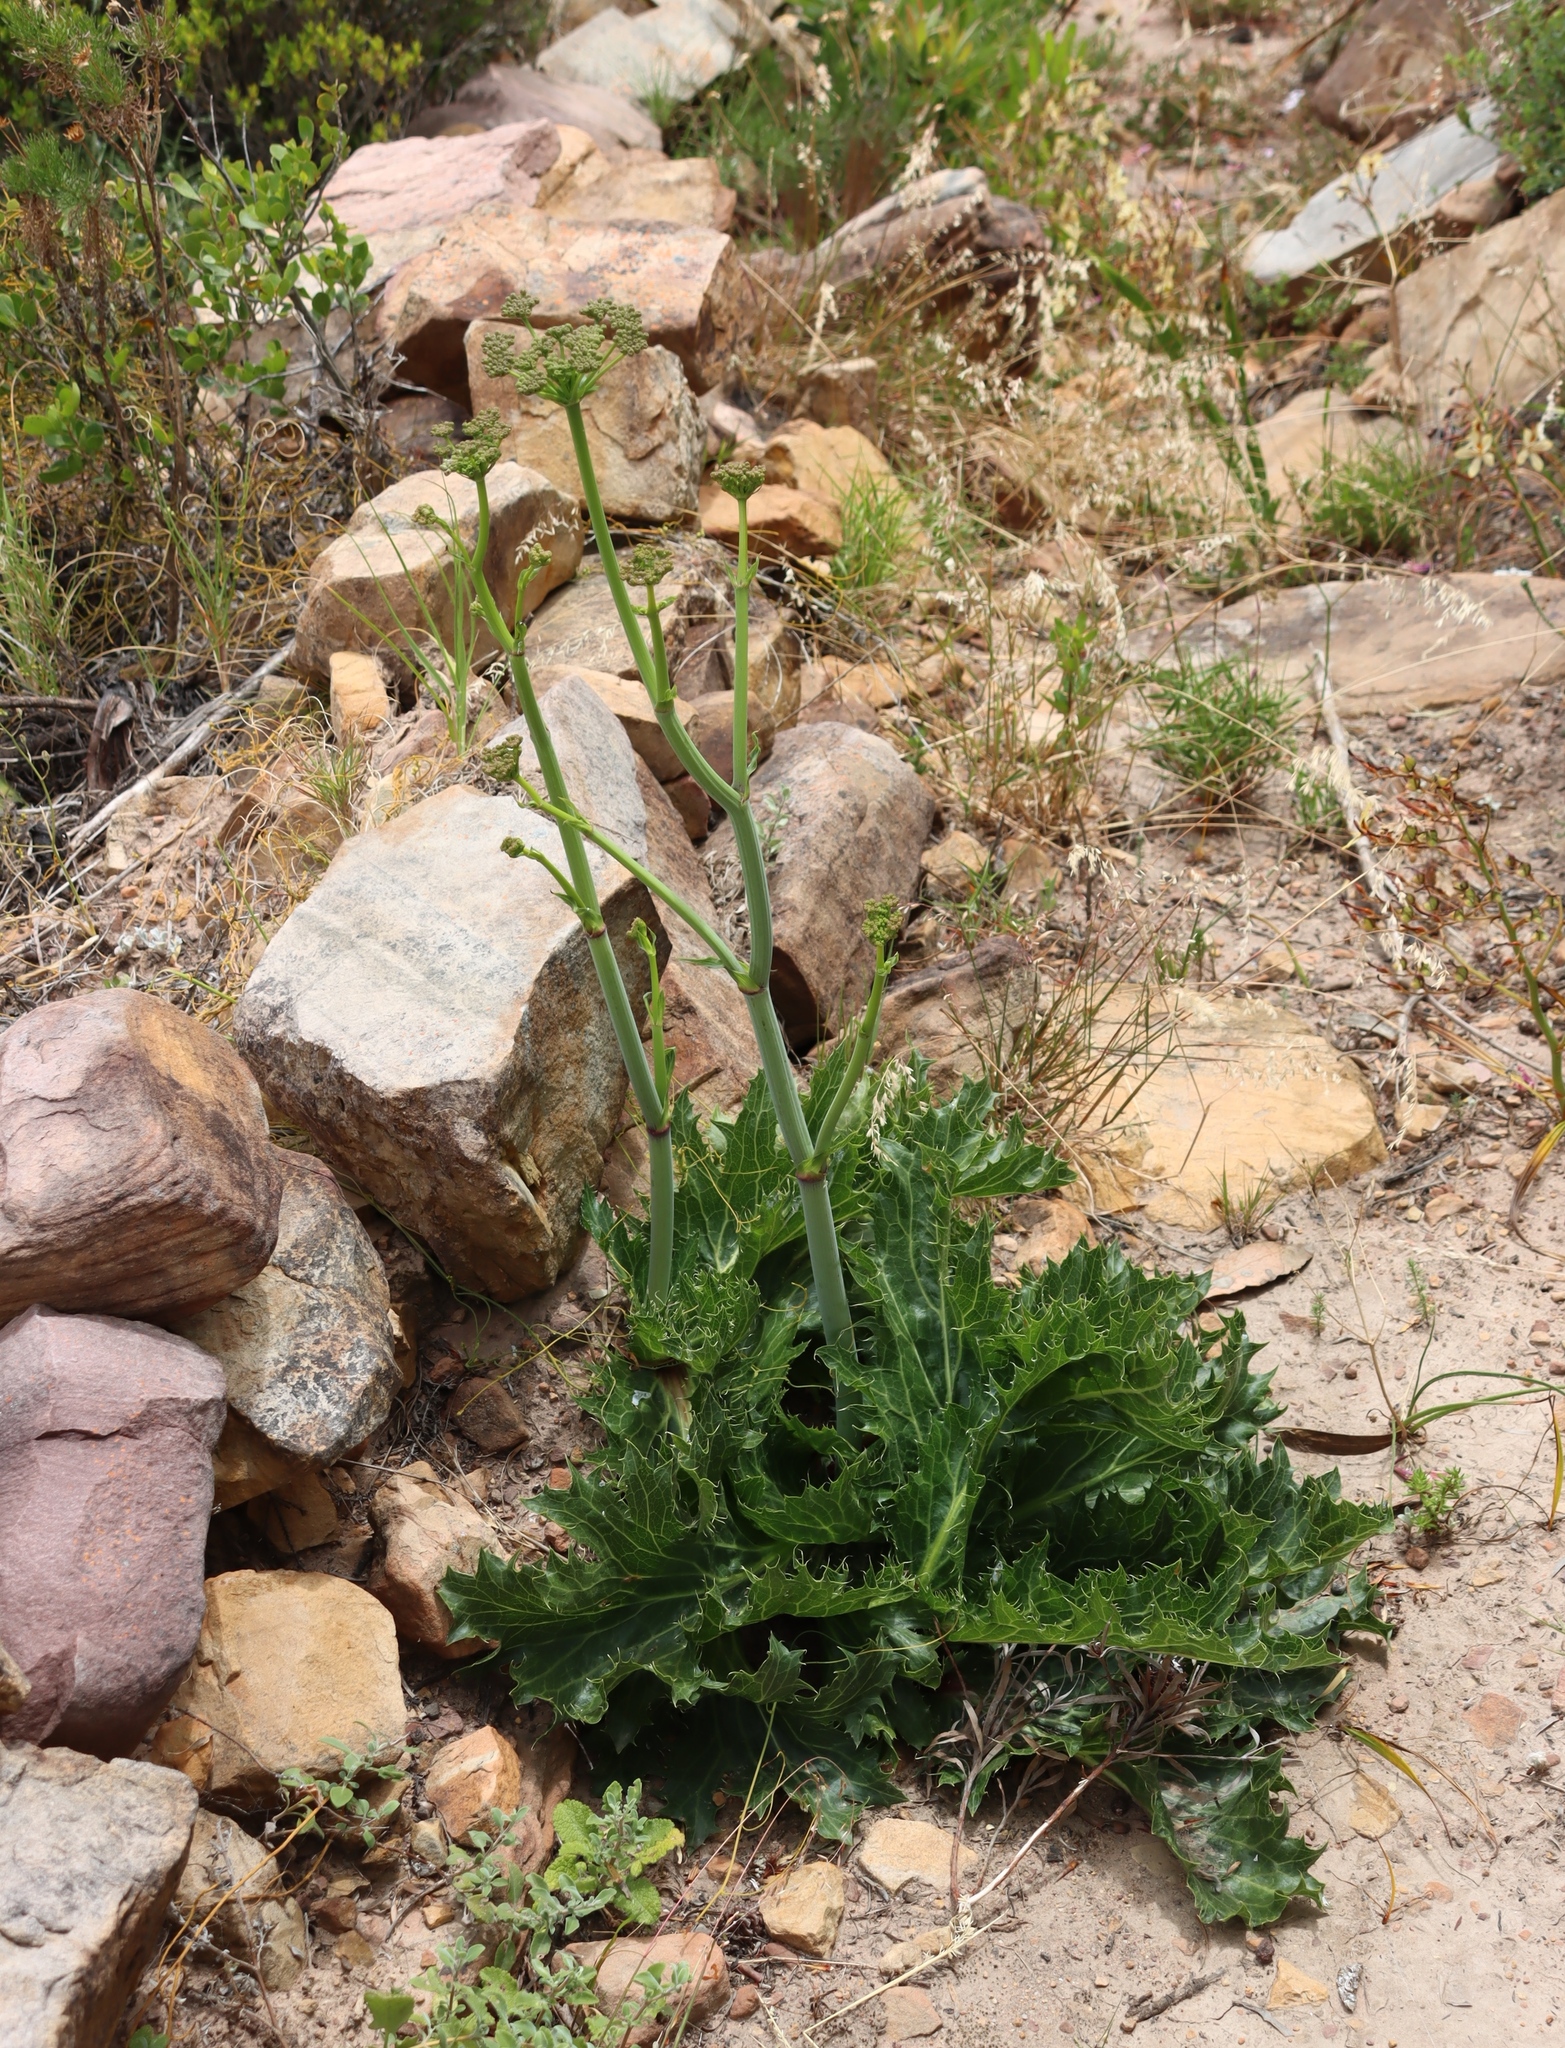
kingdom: Plantae
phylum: Tracheophyta
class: Magnoliopsida
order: Apiales
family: Apiaceae
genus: Lichtensteinia
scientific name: Lichtensteinia lacera
